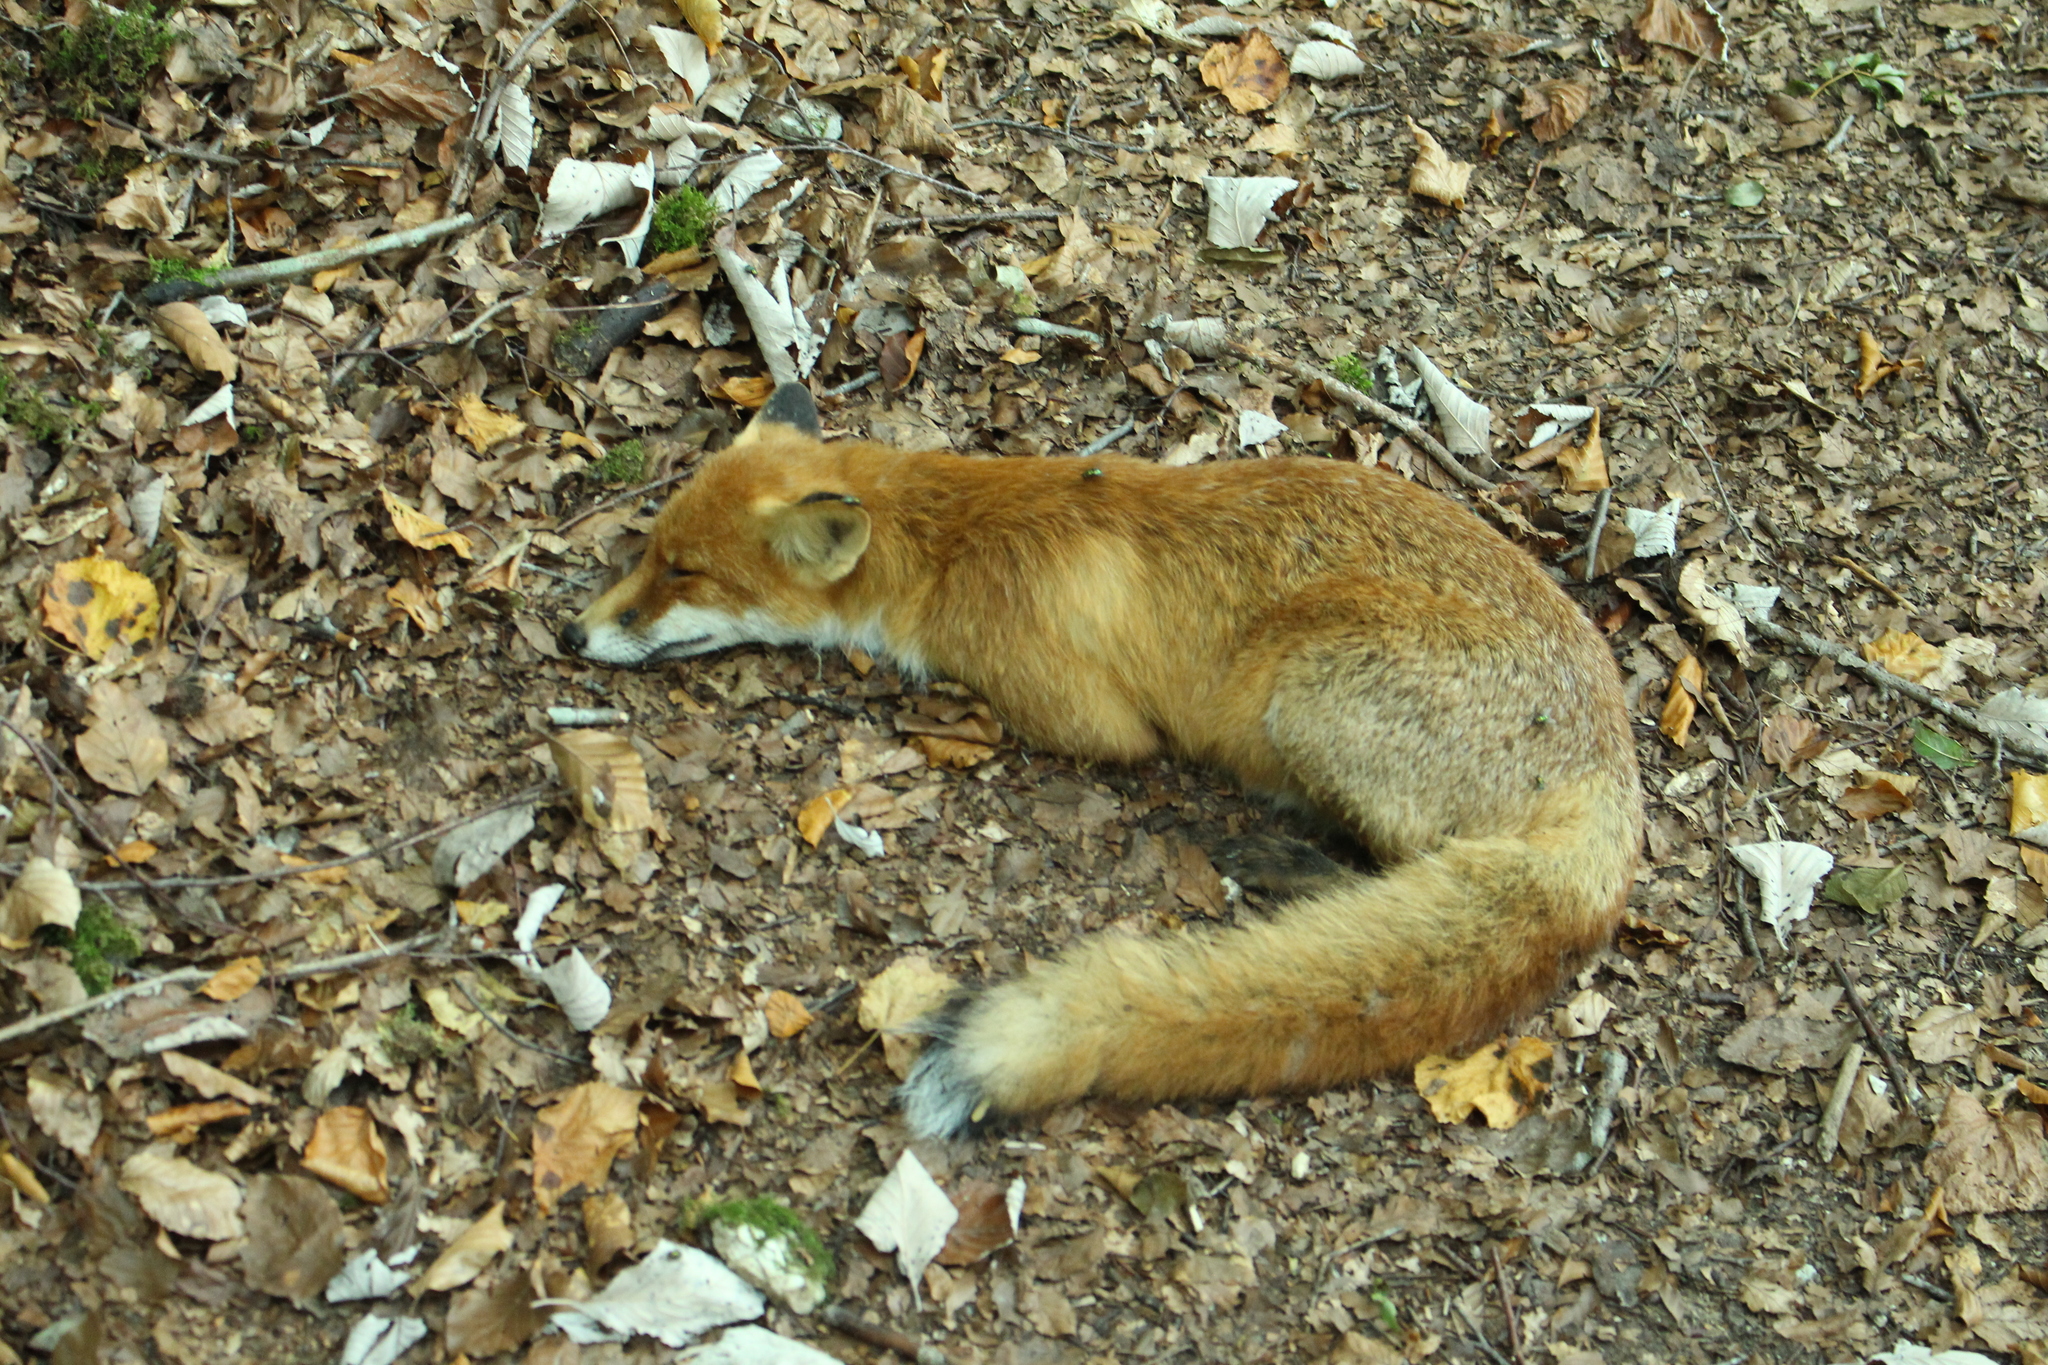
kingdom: Animalia
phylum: Chordata
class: Mammalia
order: Carnivora
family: Canidae
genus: Vulpes
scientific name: Vulpes vulpes
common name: Red fox
